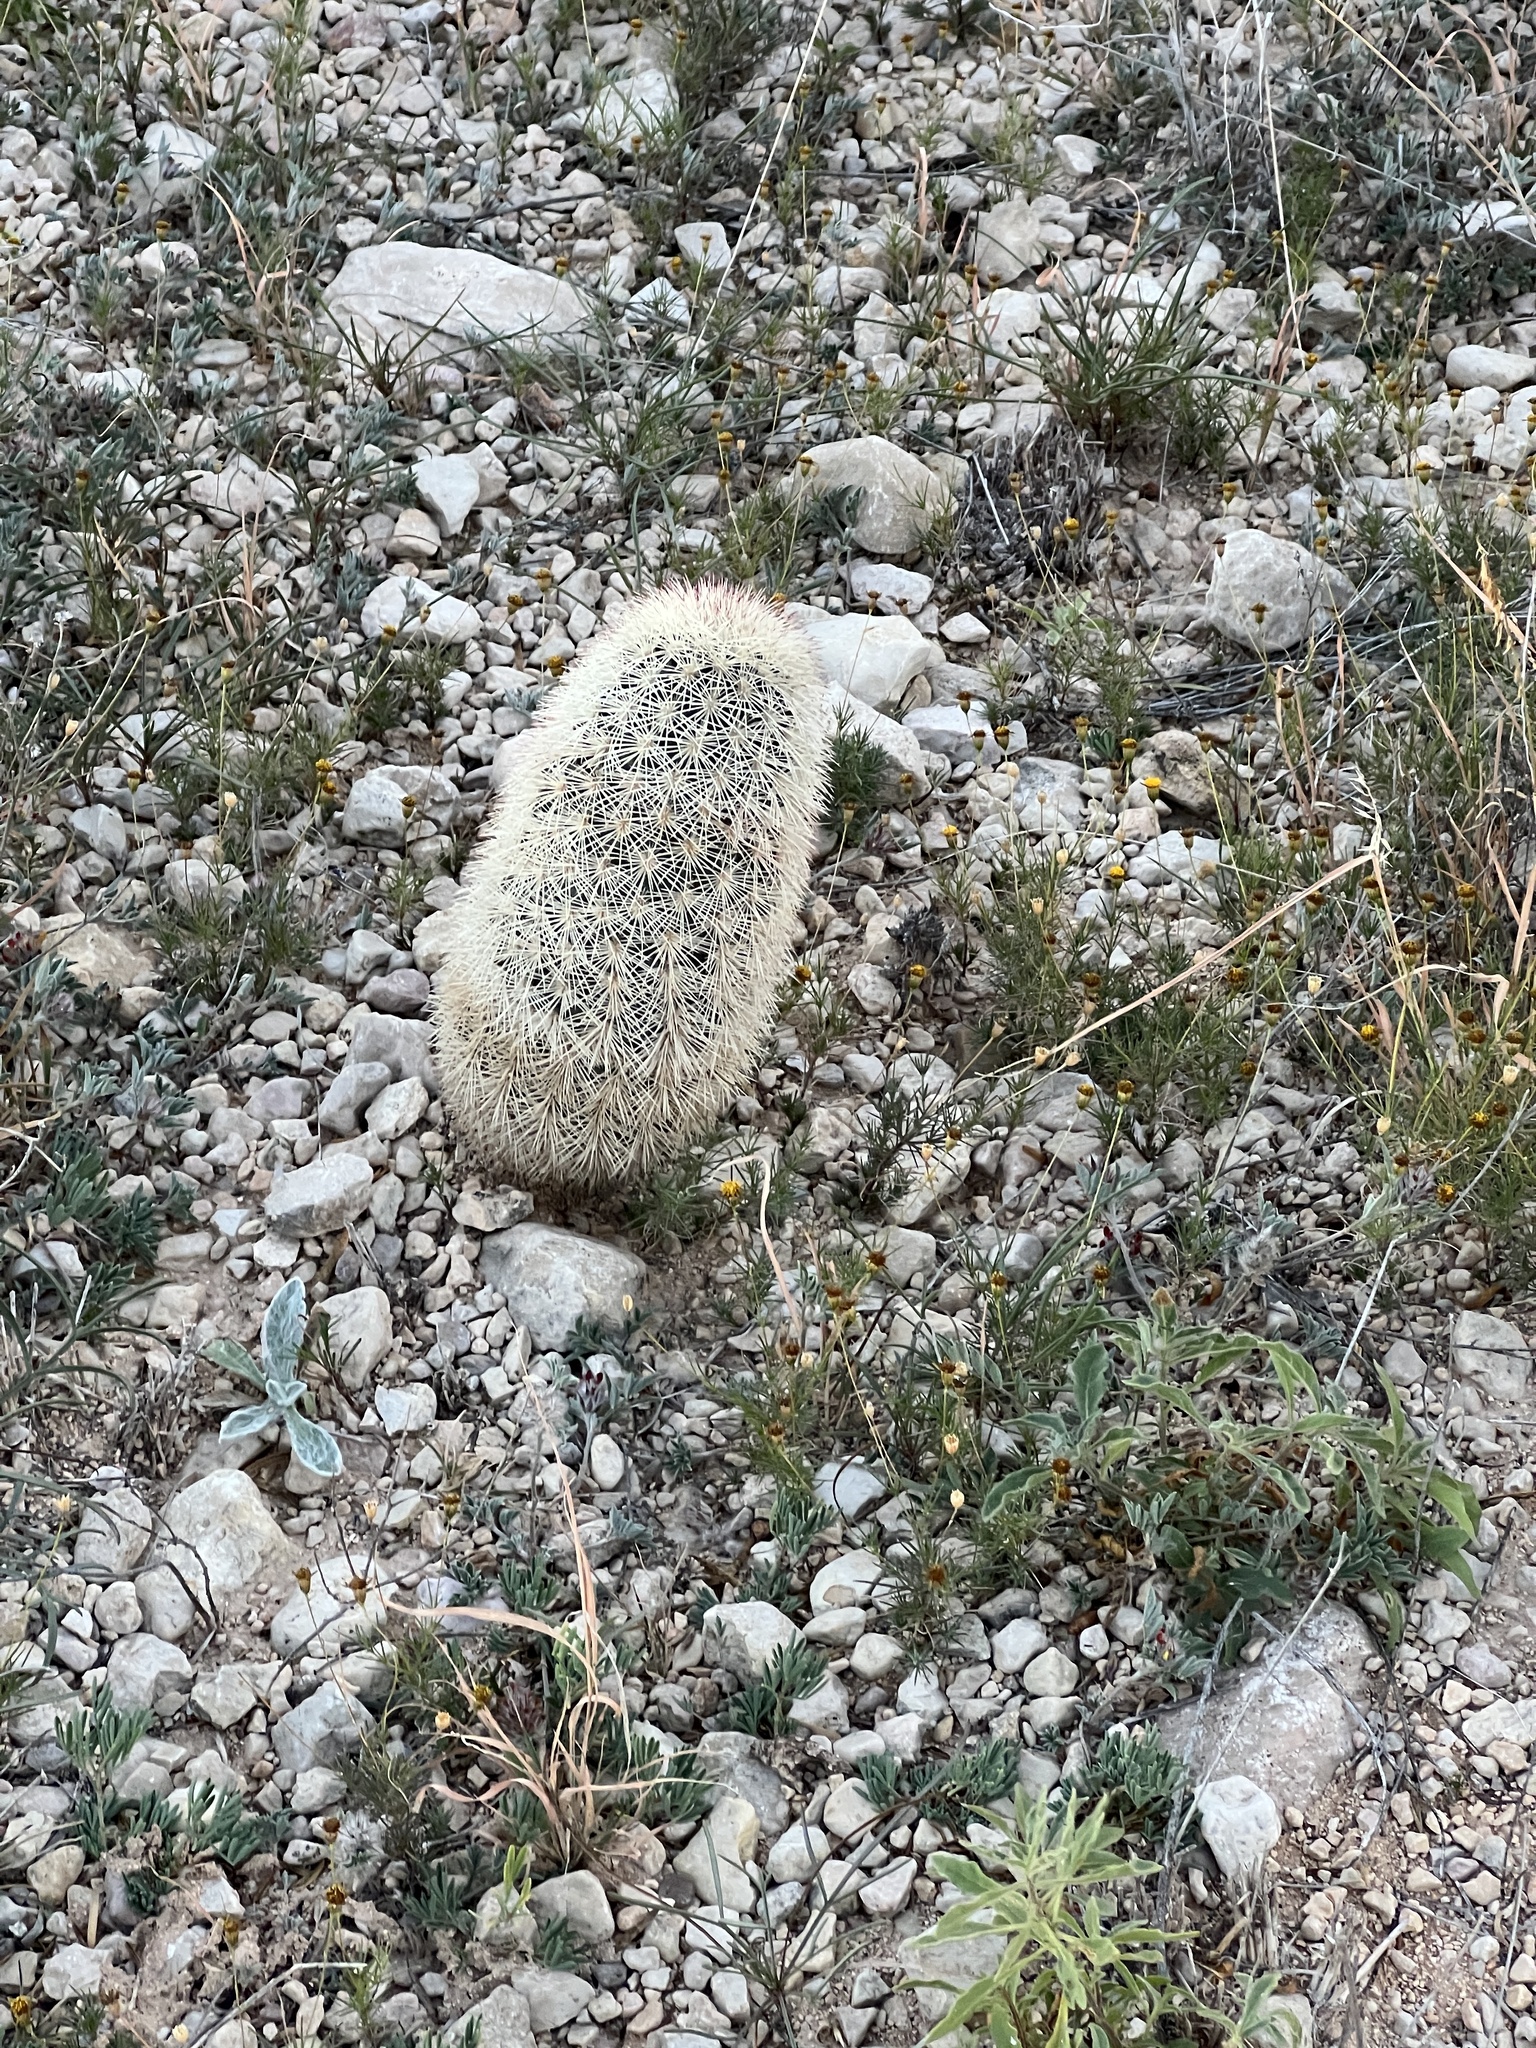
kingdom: Plantae
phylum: Tracheophyta
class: Magnoliopsida
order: Caryophyllales
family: Cactaceae
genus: Echinocereus
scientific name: Echinocereus dasyacanthus
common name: Spiny hedgehog cactus
